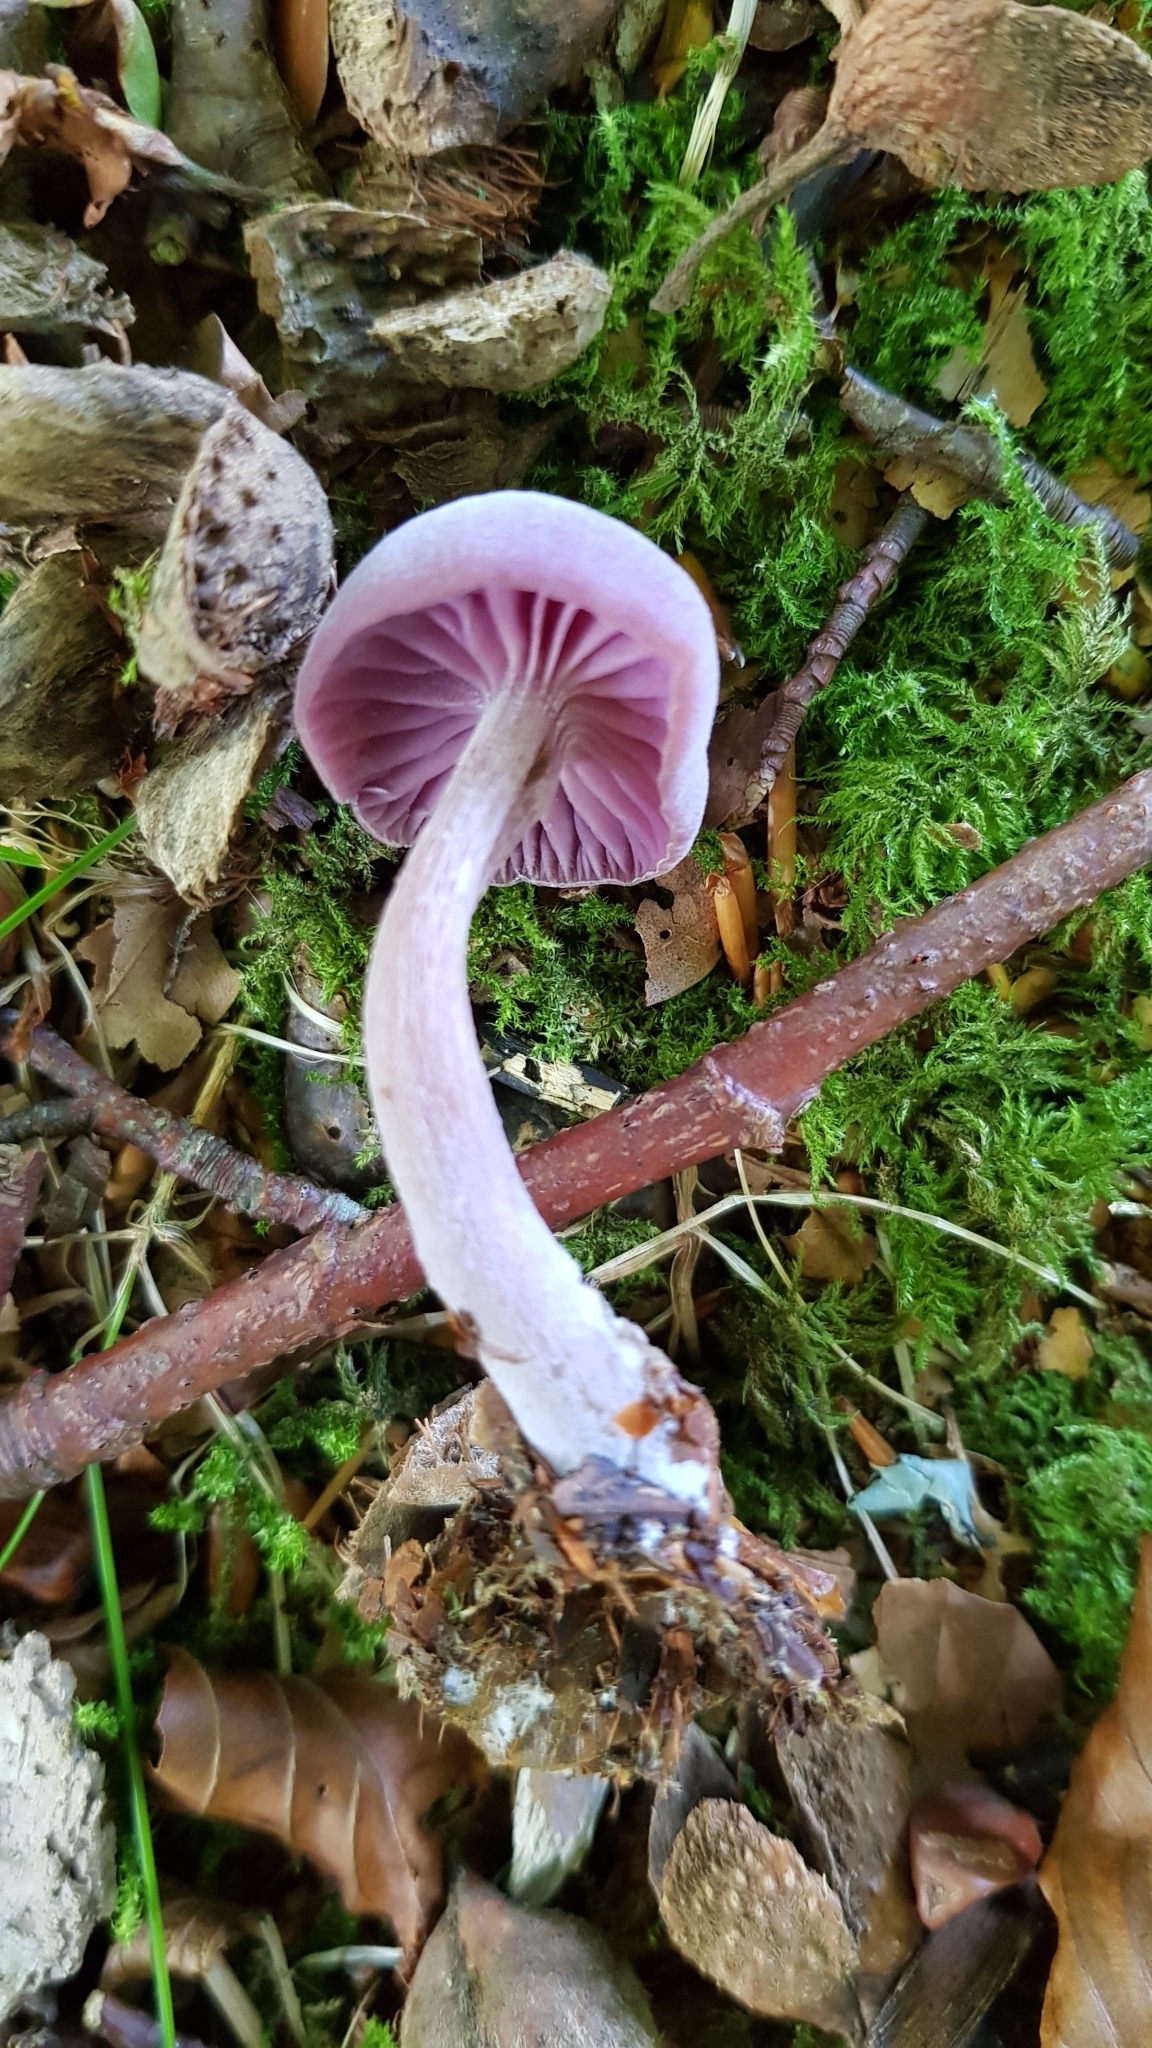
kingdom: Fungi
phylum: Basidiomycota
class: Agaricomycetes
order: Agaricales
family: Hydnangiaceae
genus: Laccaria
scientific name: Laccaria amethystina
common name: Amethyst deceiver
